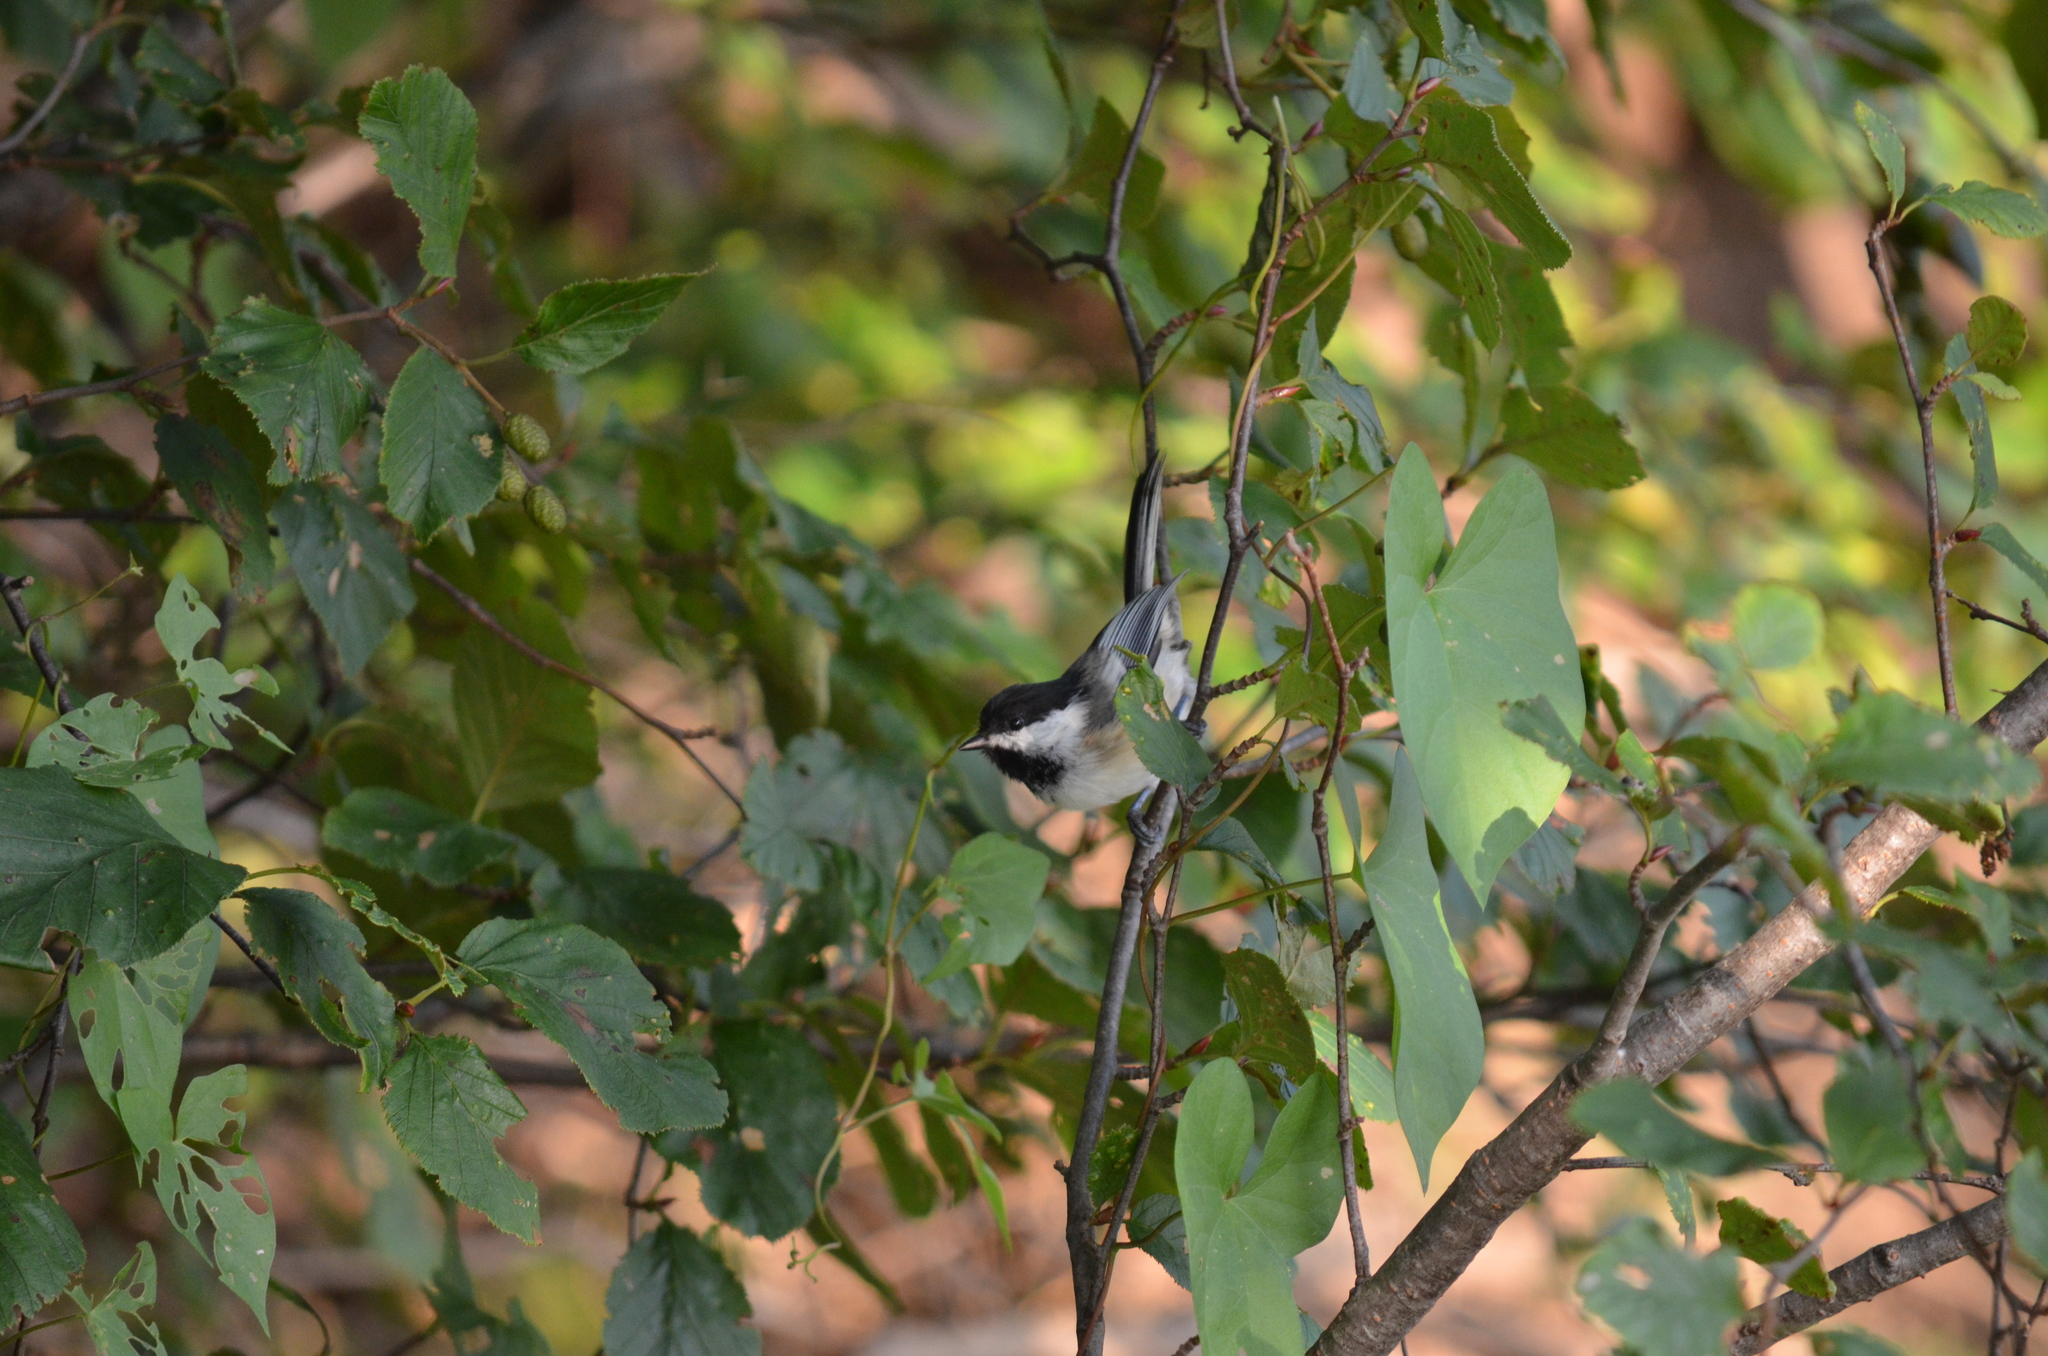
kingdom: Animalia
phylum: Chordata
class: Aves
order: Passeriformes
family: Paridae
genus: Poecile
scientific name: Poecile atricapillus
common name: Black-capped chickadee
